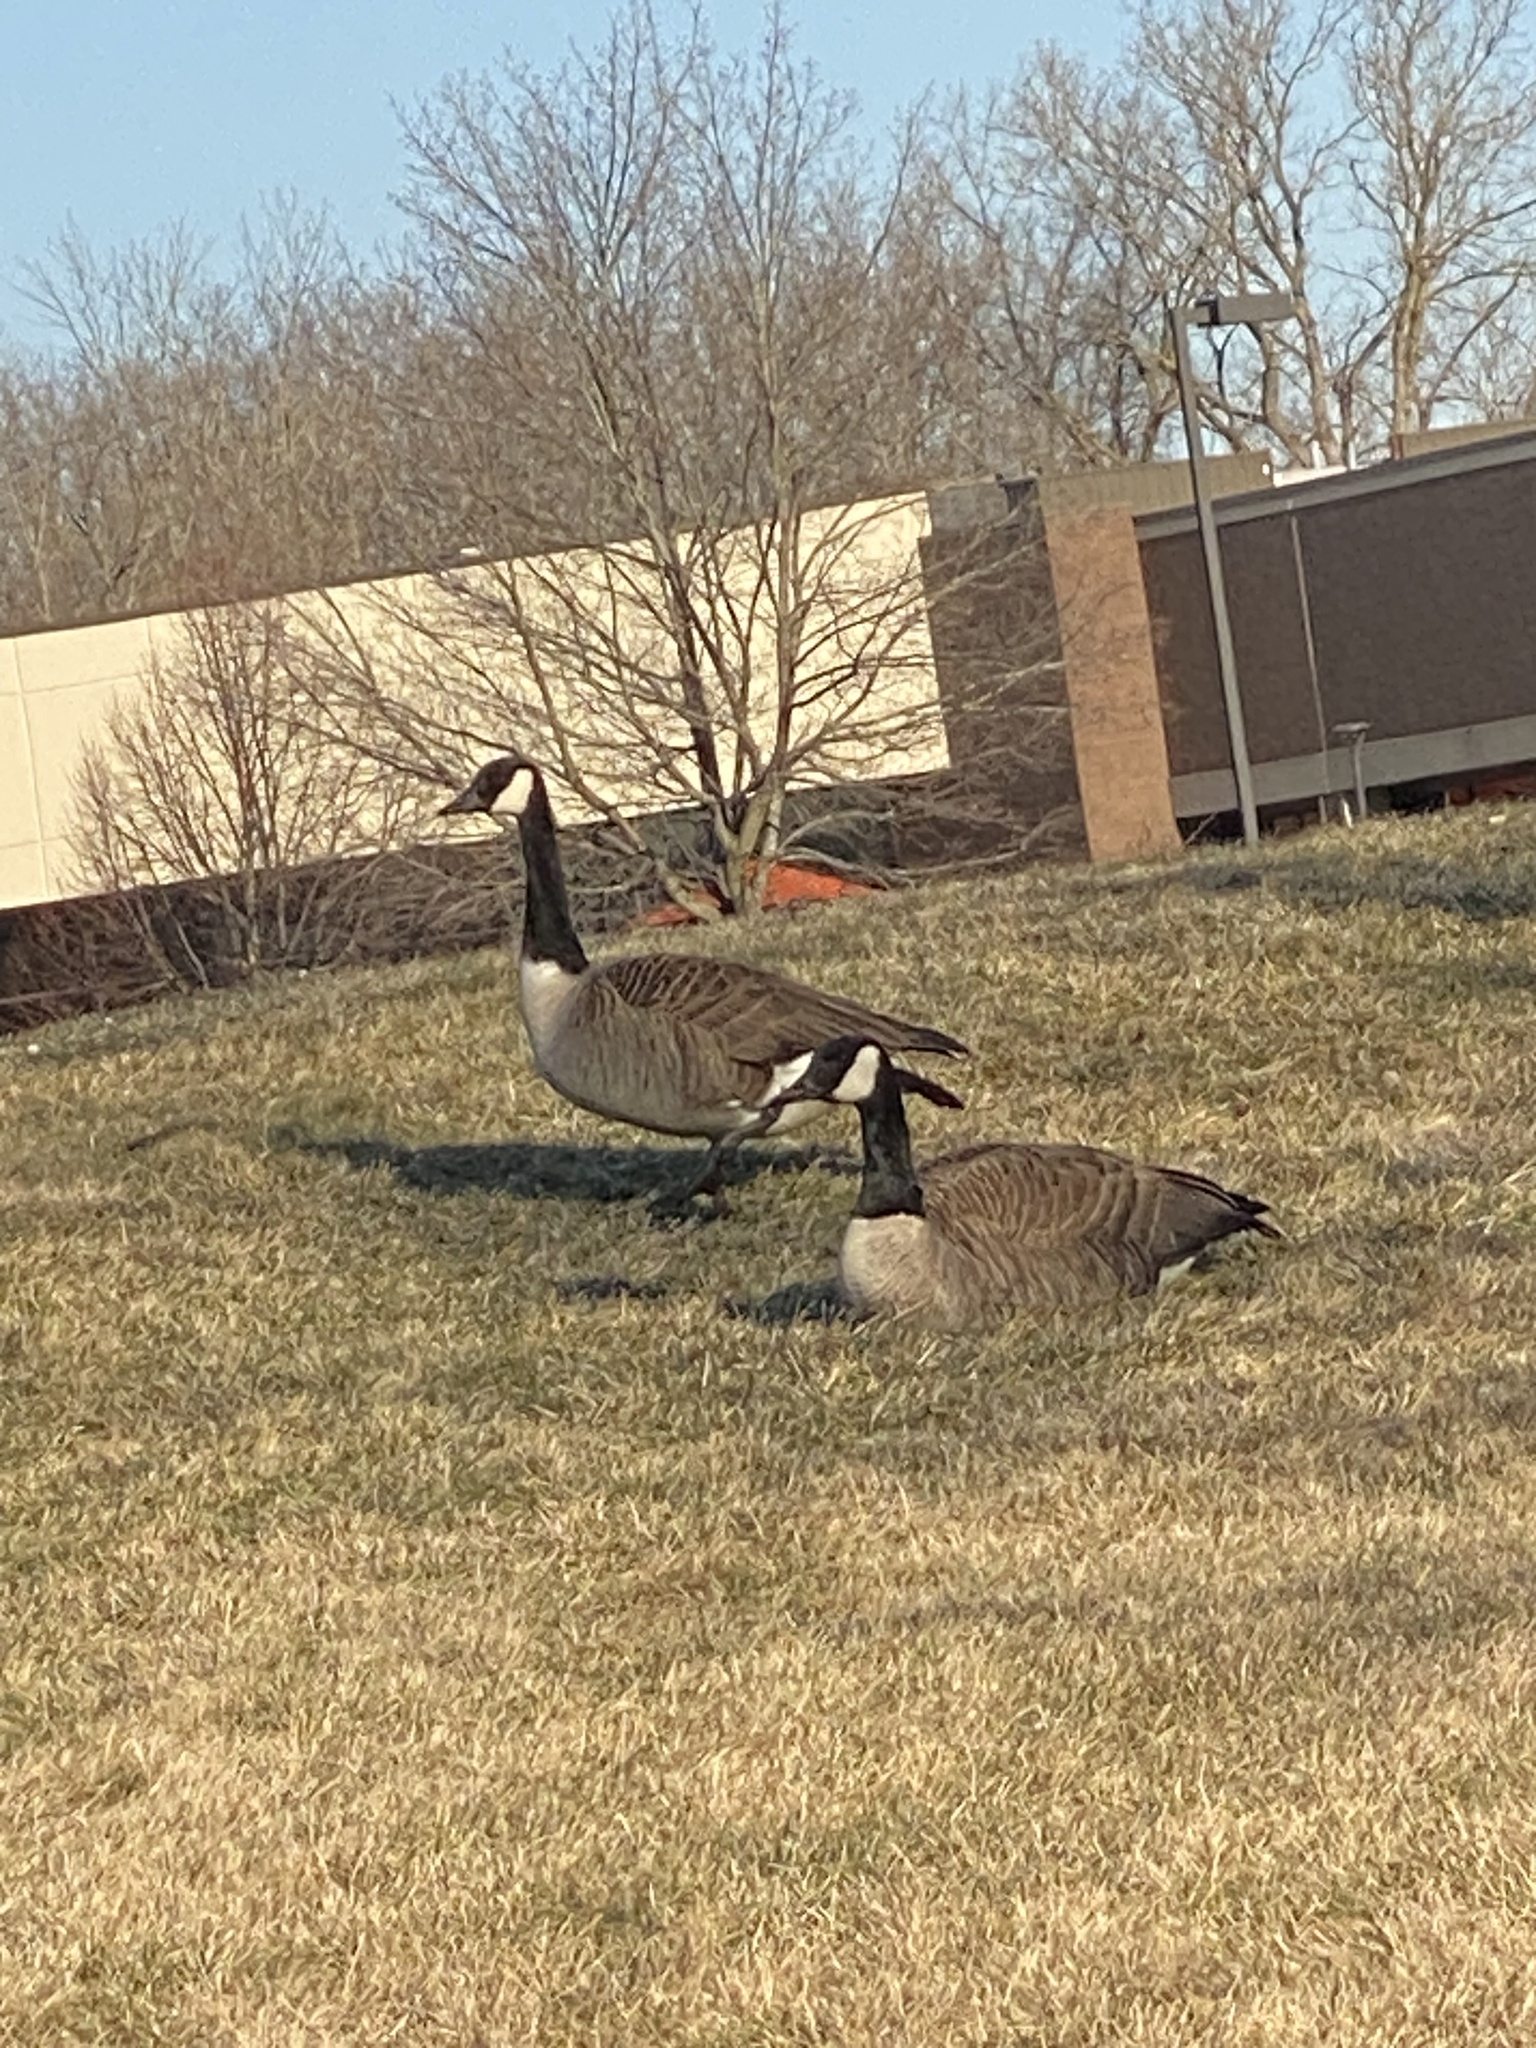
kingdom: Animalia
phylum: Chordata
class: Aves
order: Anseriformes
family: Anatidae
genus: Branta
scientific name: Branta canadensis
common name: Canada goose
